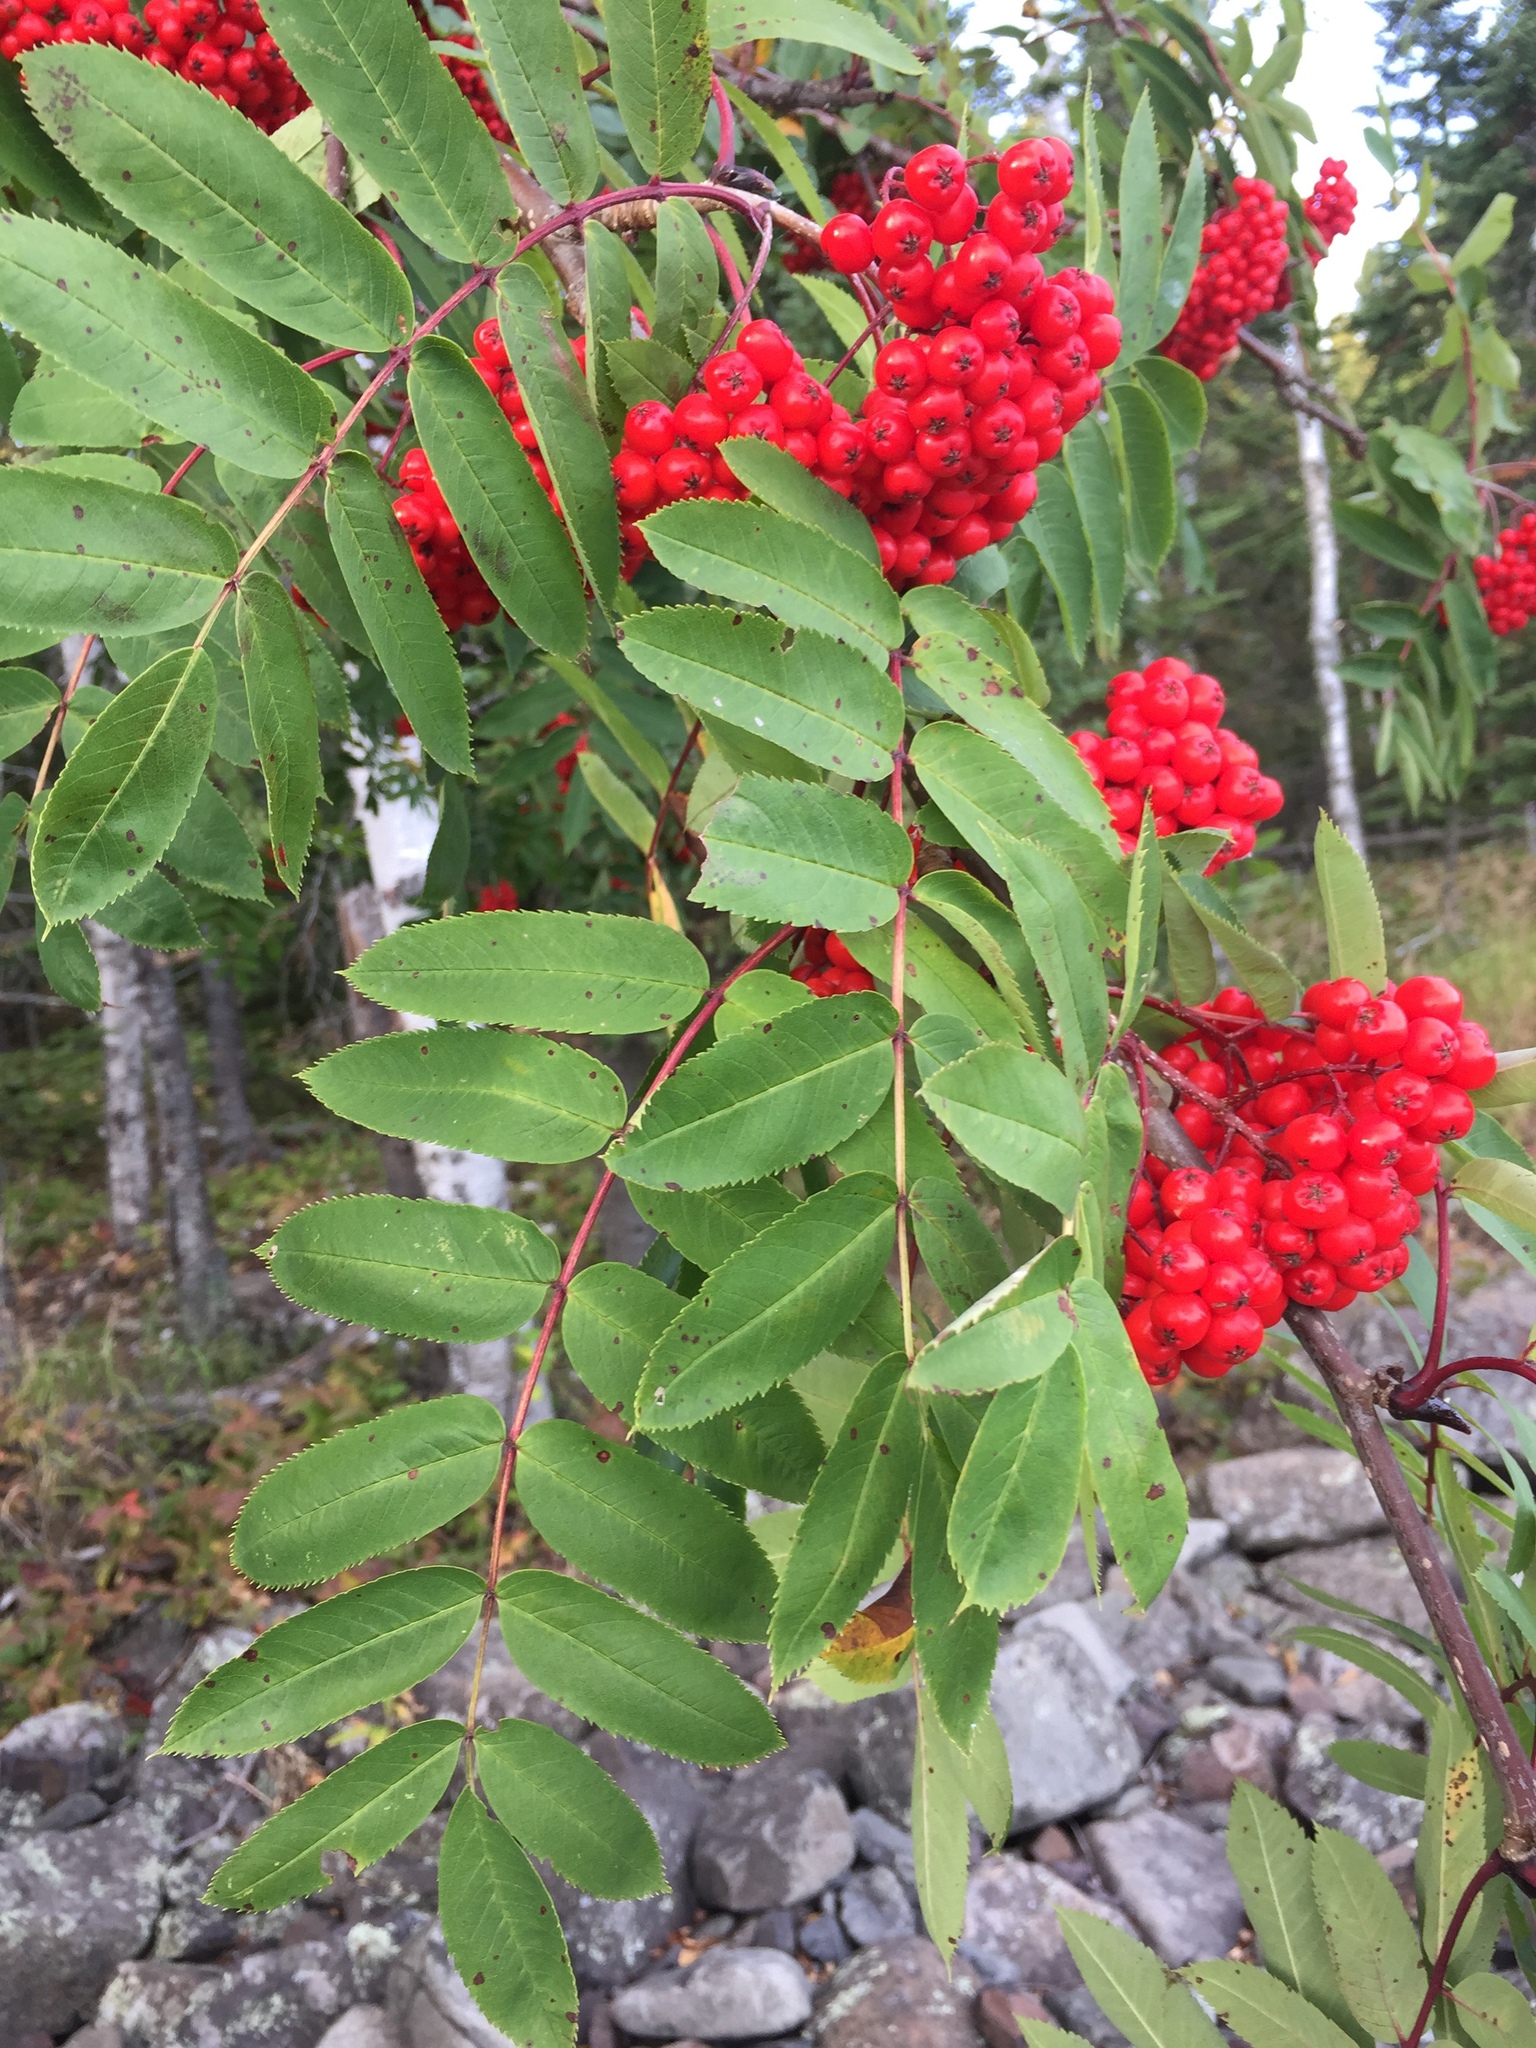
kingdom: Plantae
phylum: Tracheophyta
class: Magnoliopsida
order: Rosales
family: Rosaceae
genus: Sorbus
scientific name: Sorbus decora
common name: Northern mountain-ash
